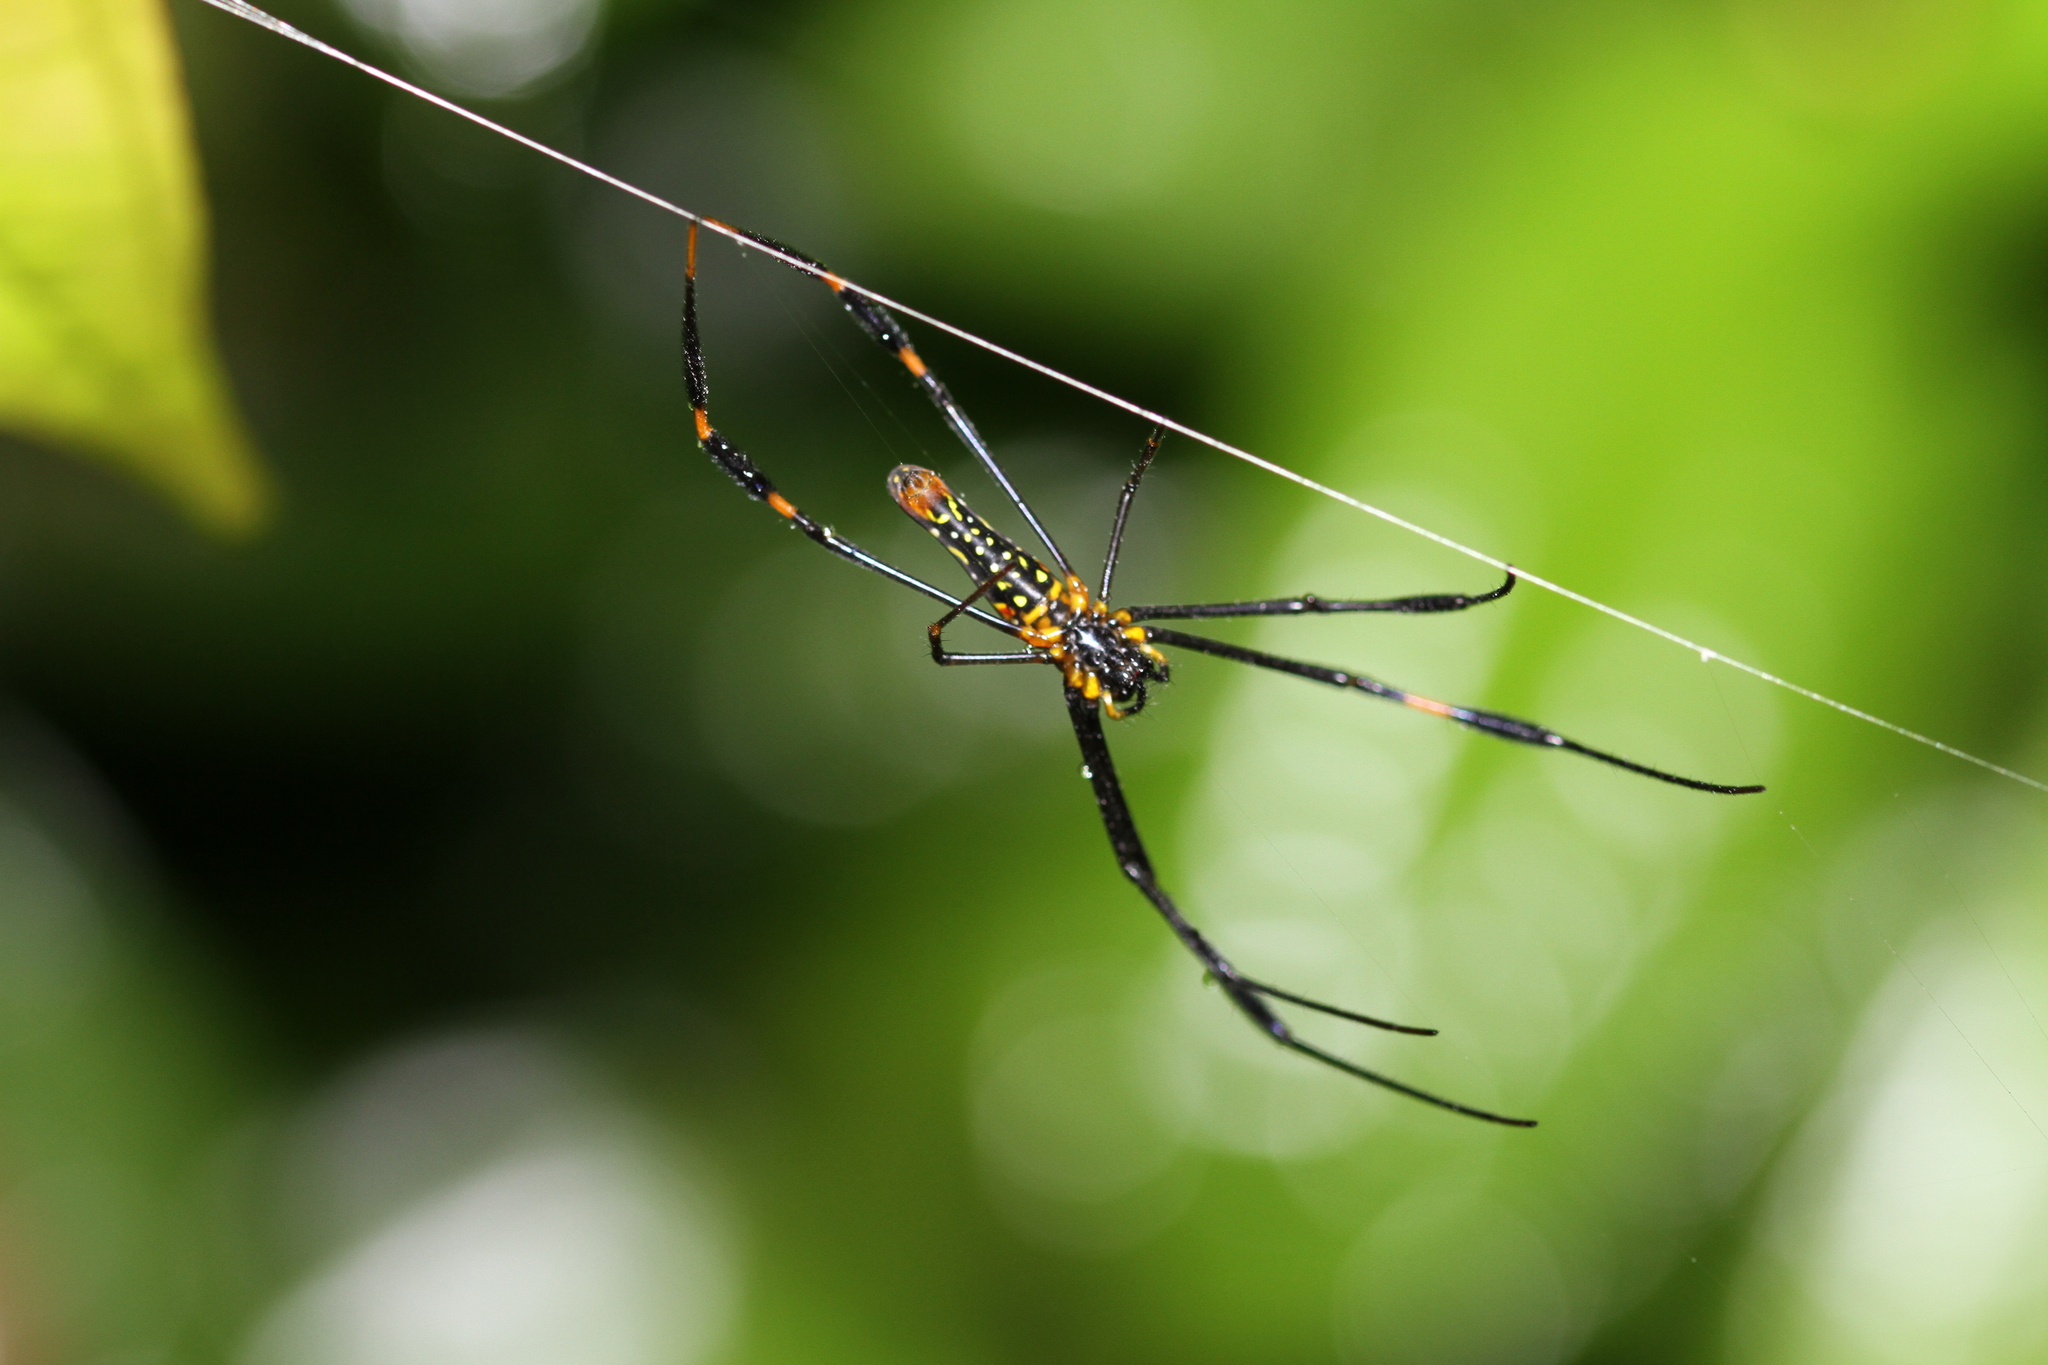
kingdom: Animalia
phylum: Arthropoda
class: Arachnida
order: Araneae
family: Araneidae
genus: Nephila
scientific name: Nephila pilipes
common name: Giant golden orb weaver
